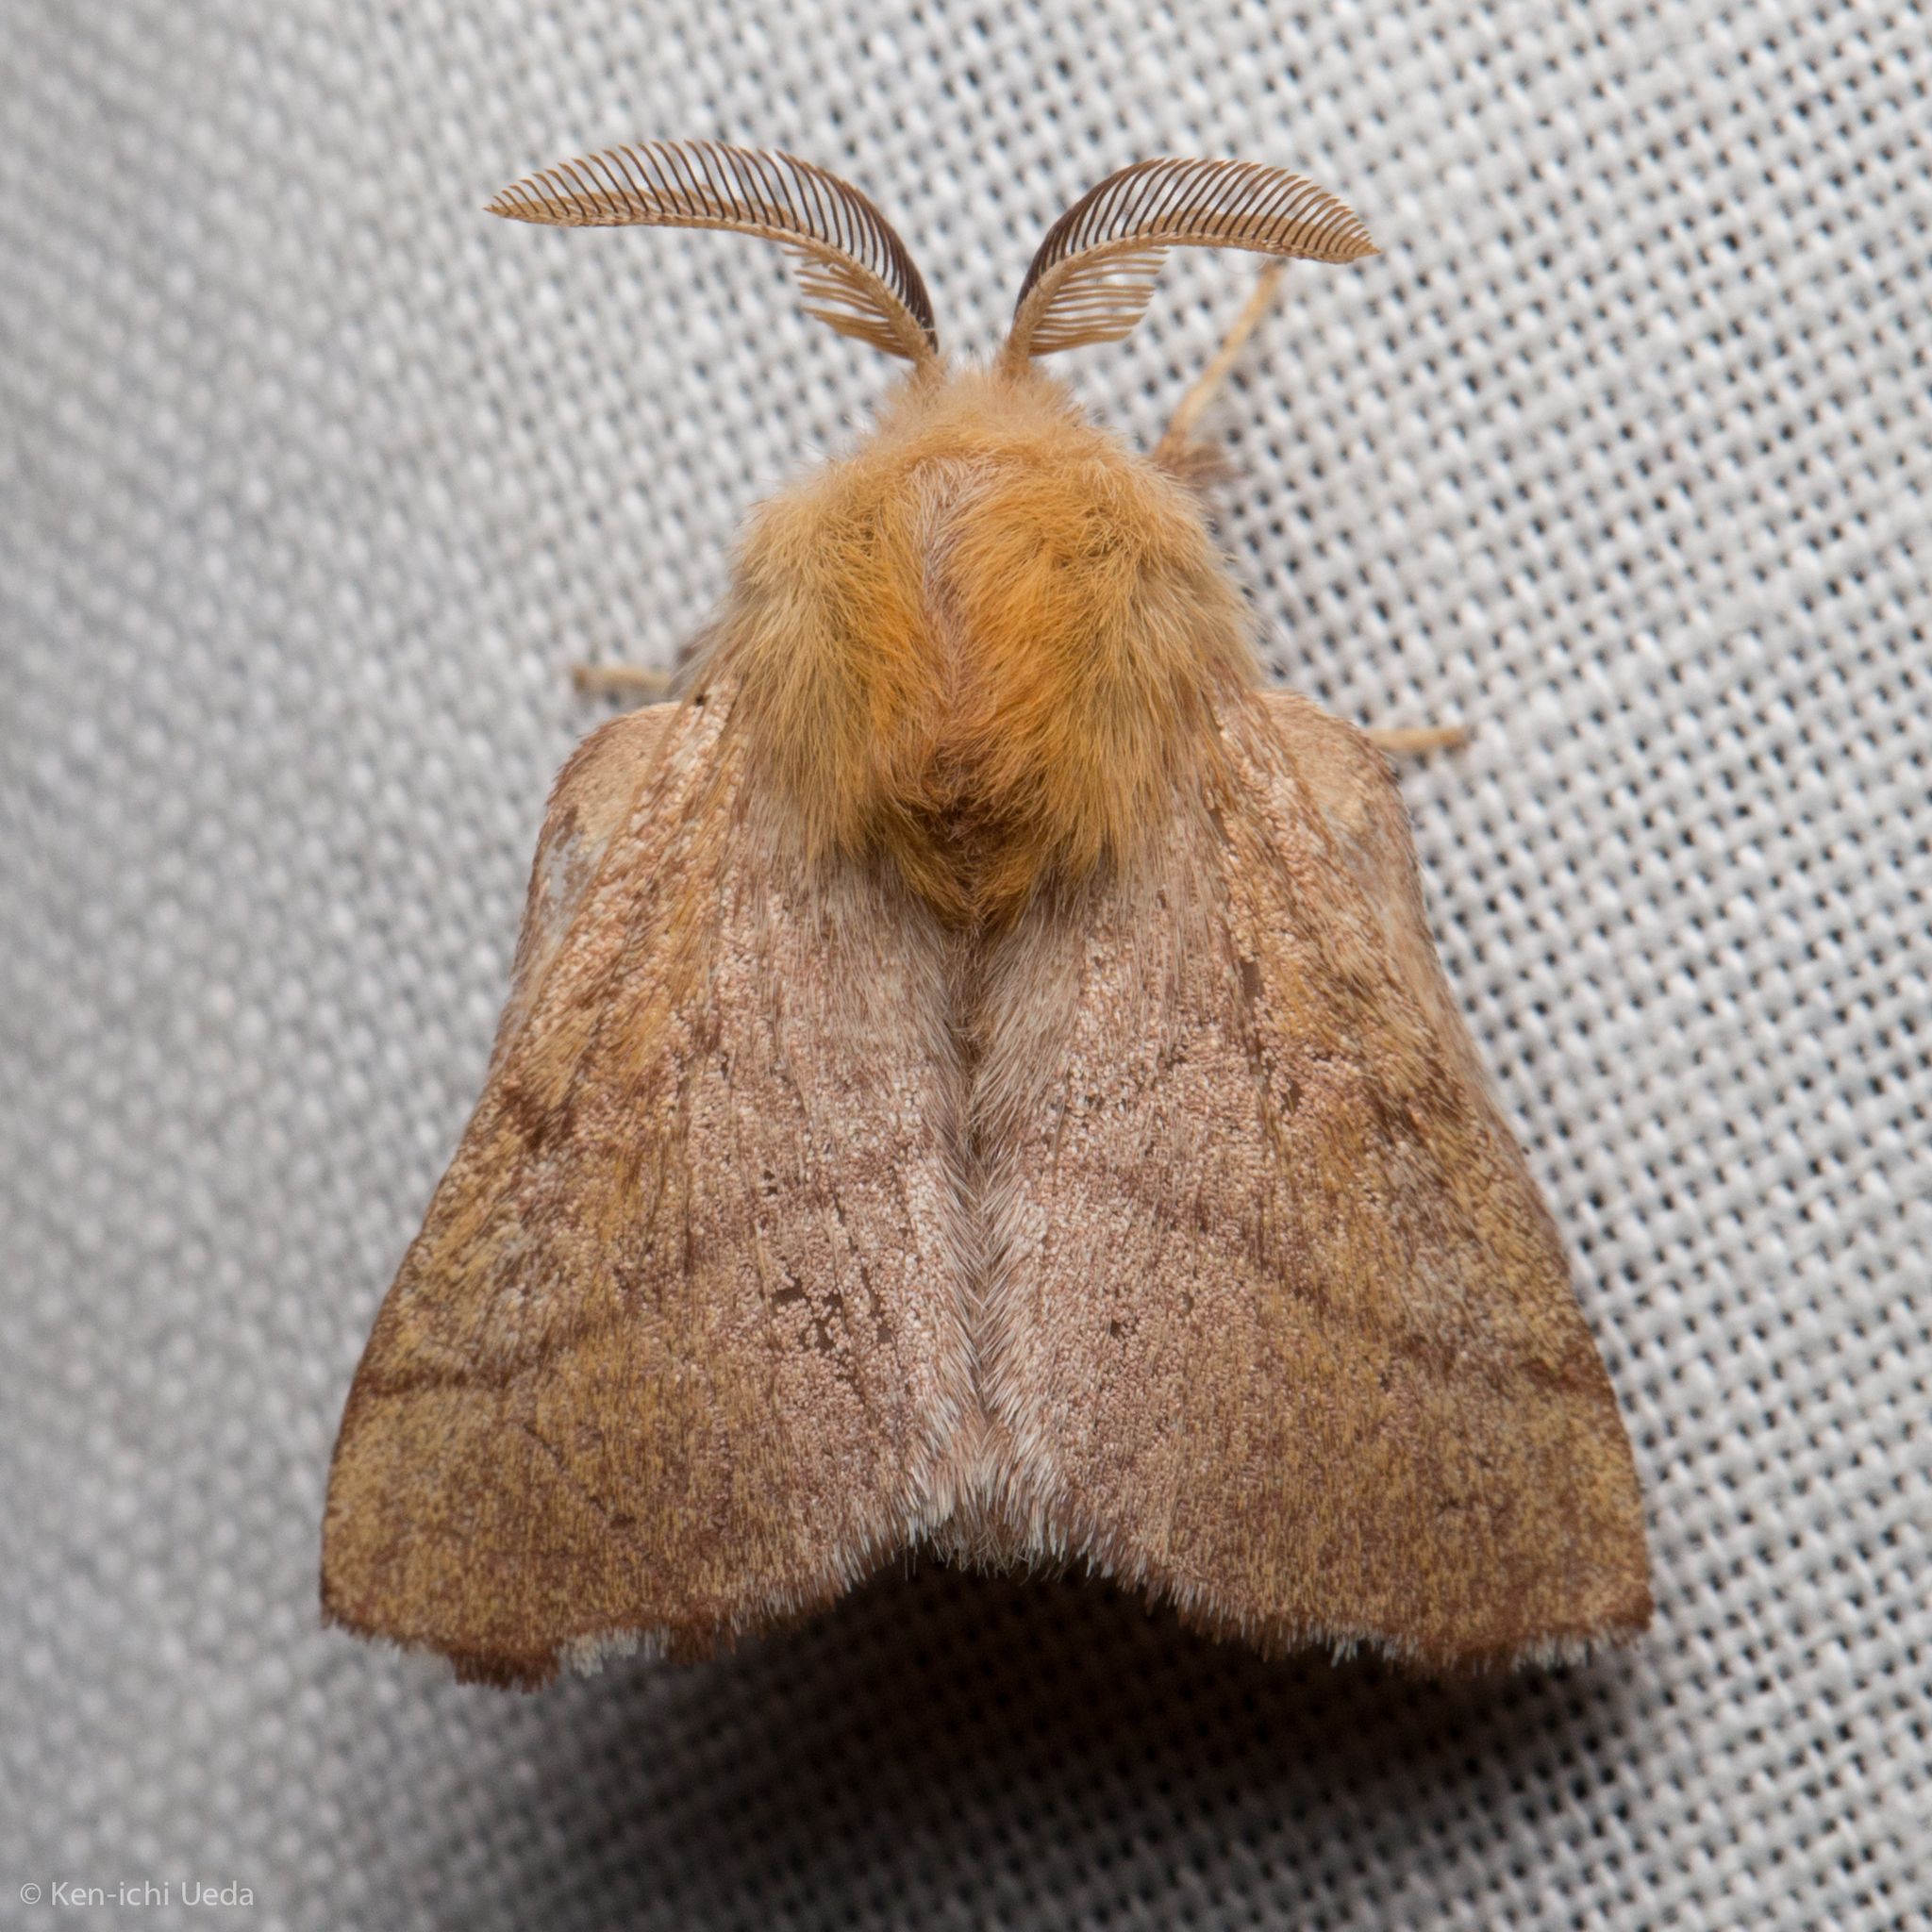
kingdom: Animalia
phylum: Arthropoda
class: Insecta
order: Lepidoptera
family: Lasiocampidae
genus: Malacosoma
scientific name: Malacosoma disstria
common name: Forest tent caterpillar
